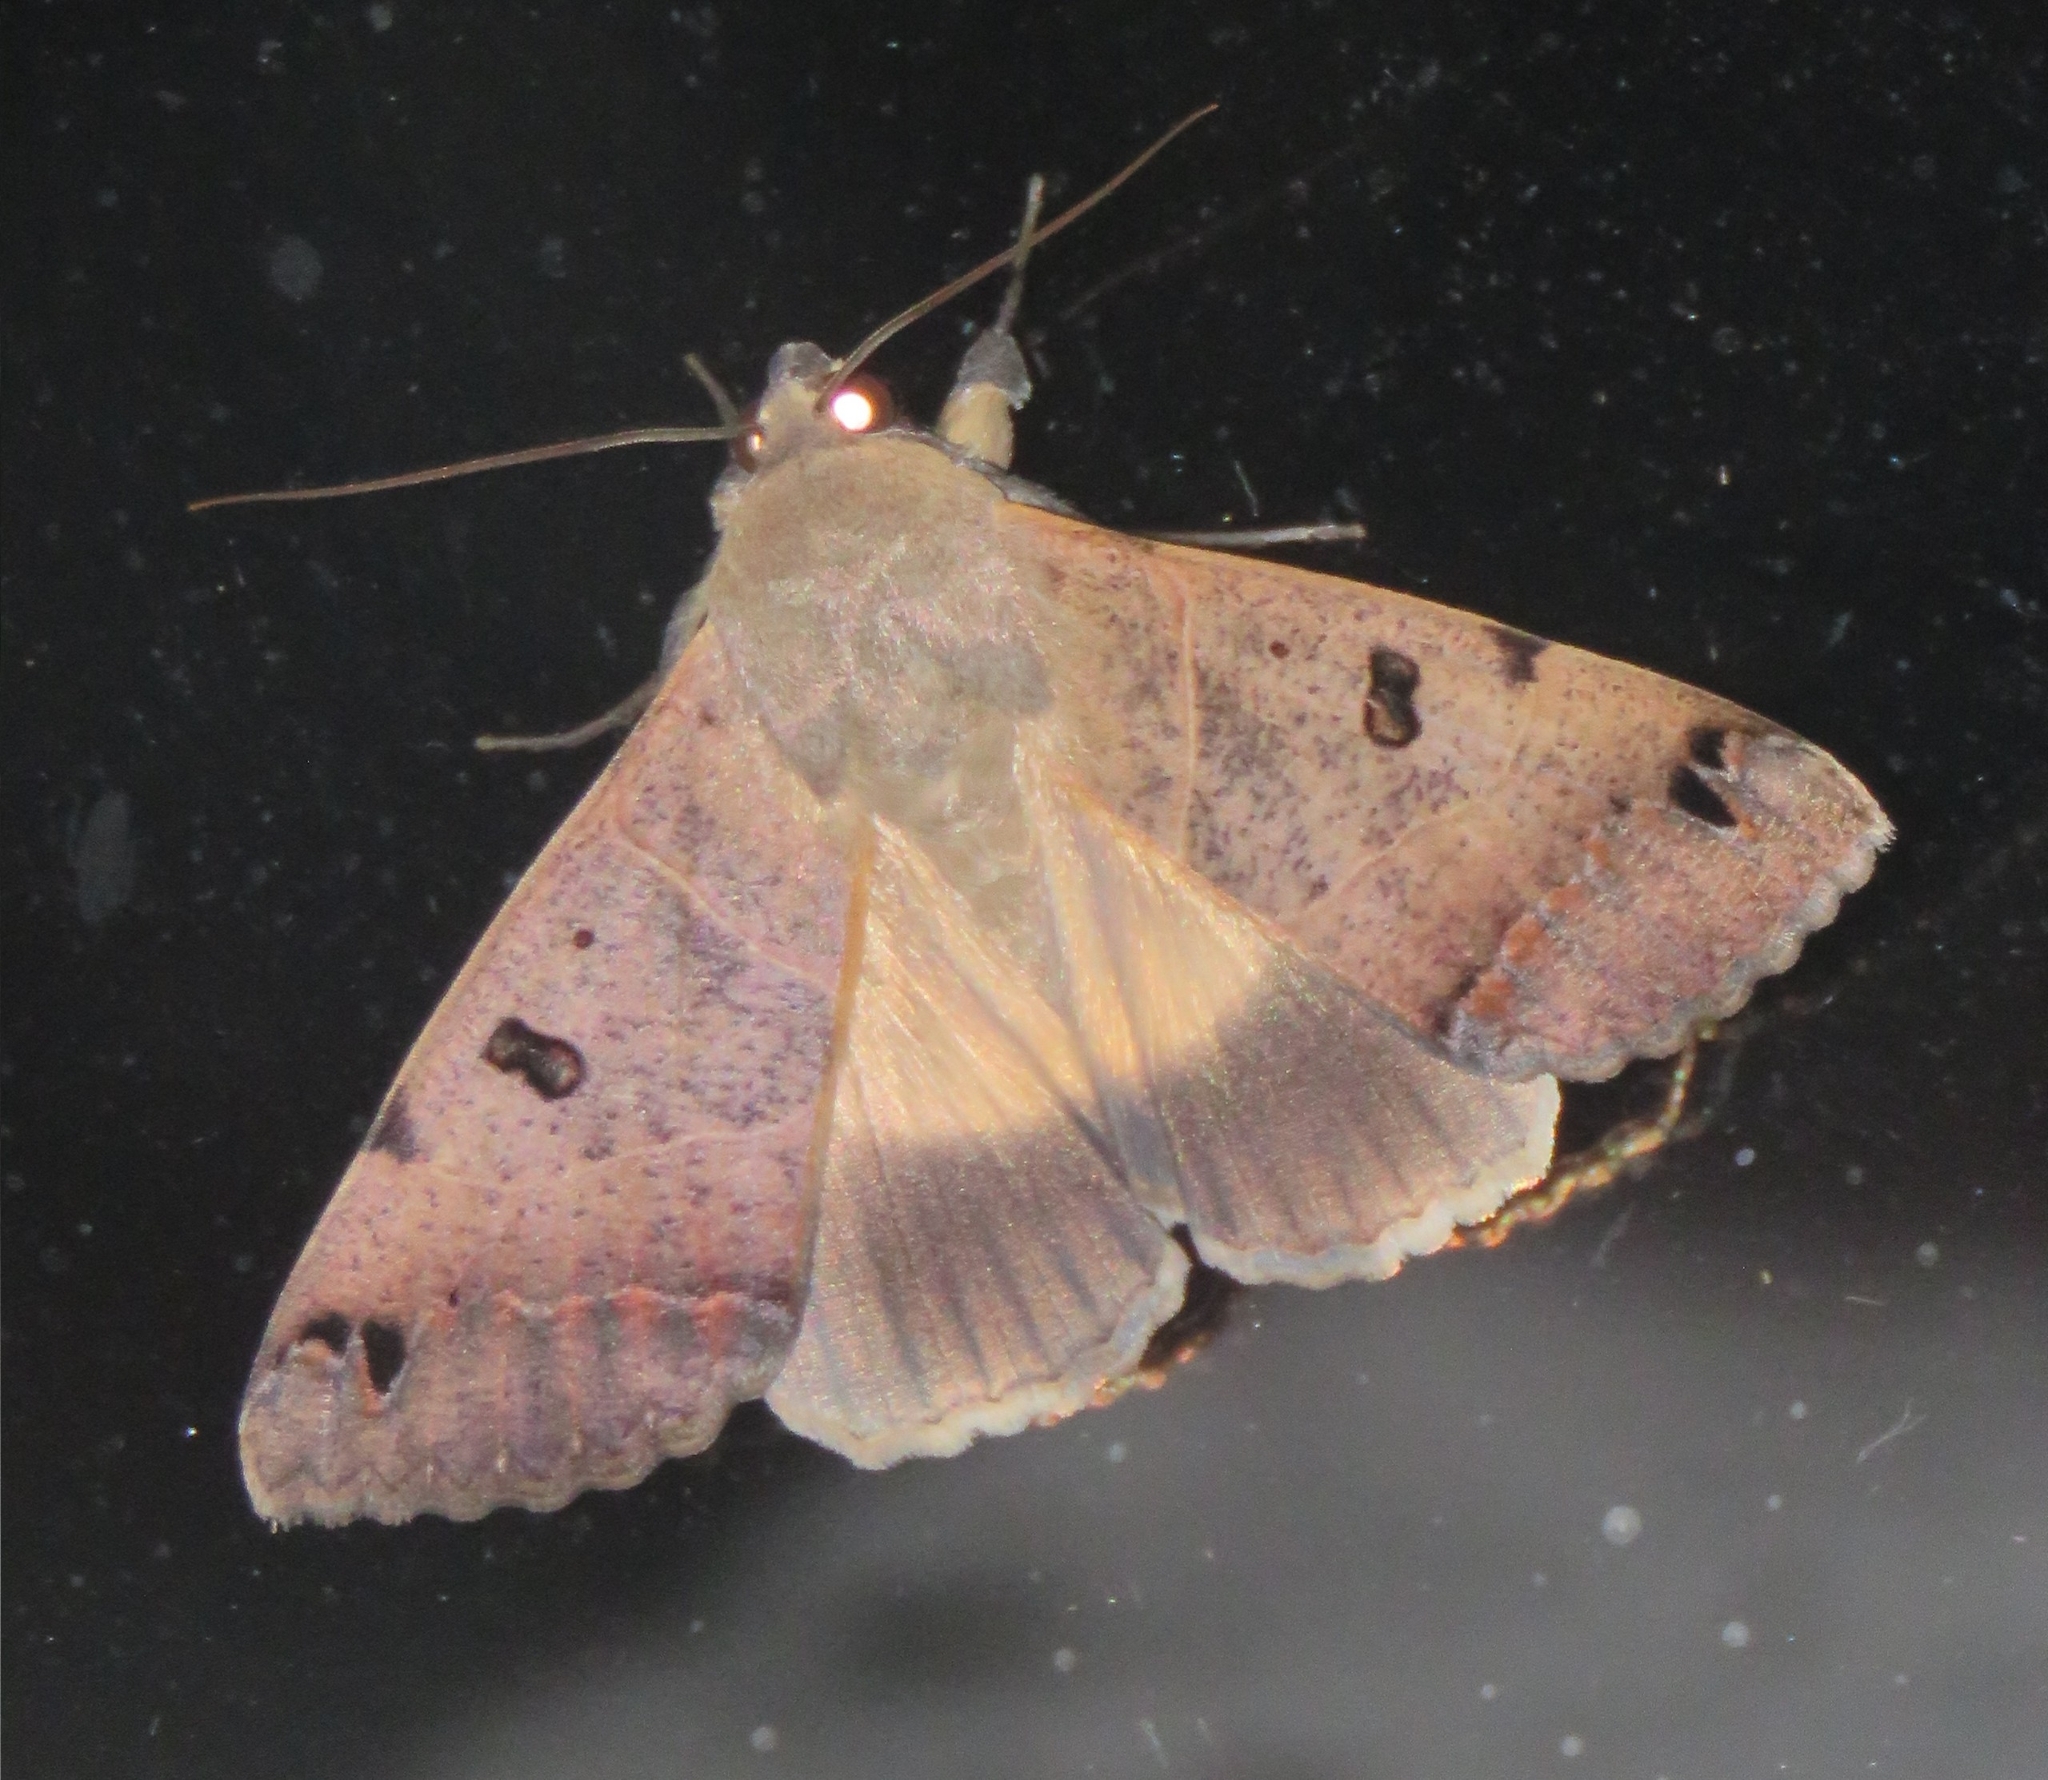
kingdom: Animalia
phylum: Arthropoda
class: Insecta
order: Lepidoptera
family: Erebidae
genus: Ophiusa
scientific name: Ophiusa triphaenoides
